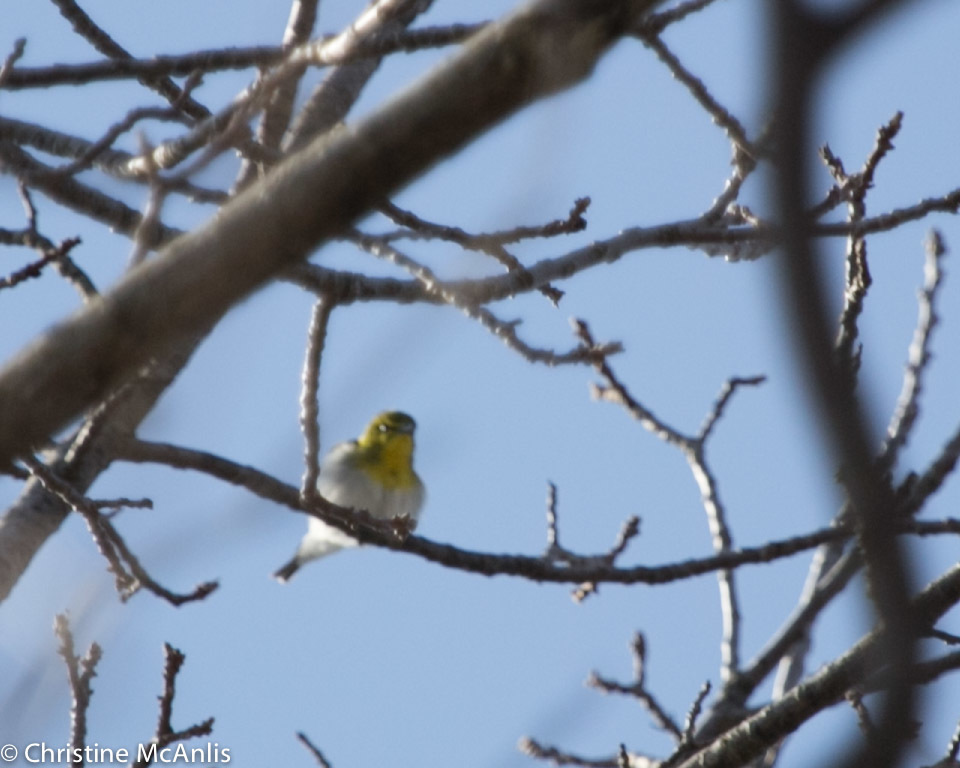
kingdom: Animalia
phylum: Chordata
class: Aves
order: Passeriformes
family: Vireonidae
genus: Vireo
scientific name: Vireo flavifrons
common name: Yellow-throated vireo
